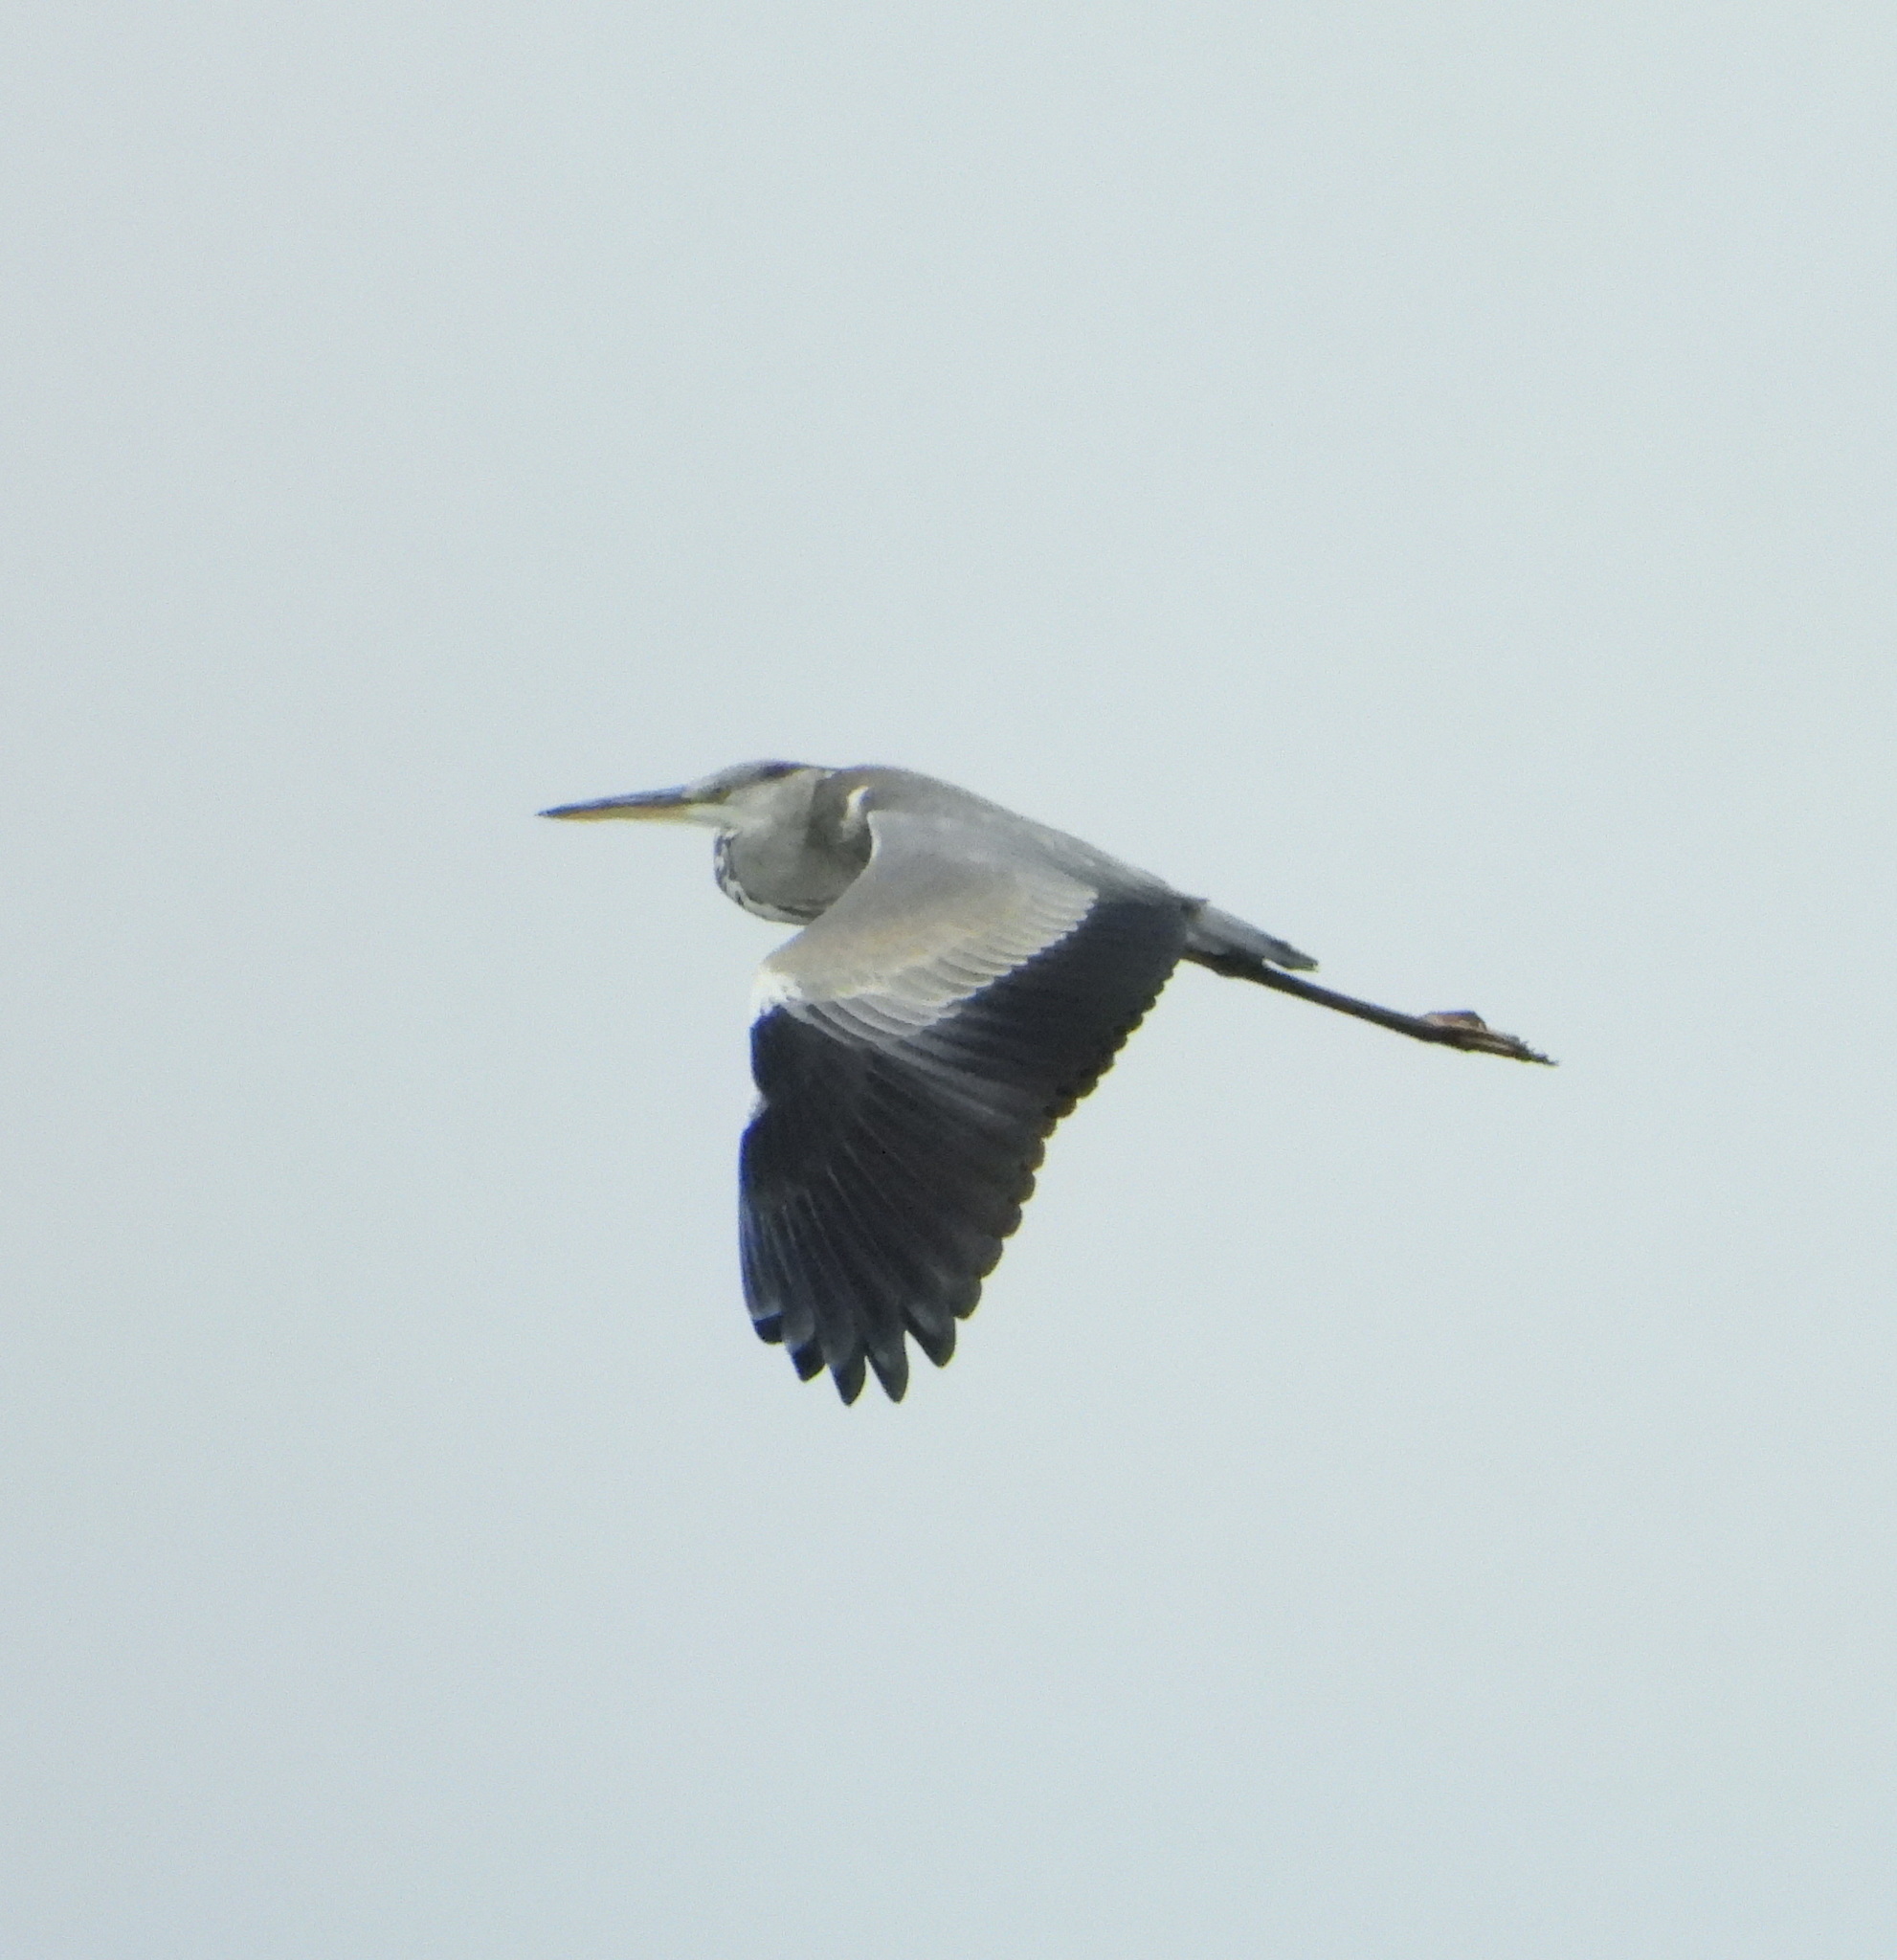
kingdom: Animalia
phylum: Chordata
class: Aves
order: Pelecaniformes
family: Ardeidae
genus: Ardea
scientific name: Ardea cinerea
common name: Grey heron
